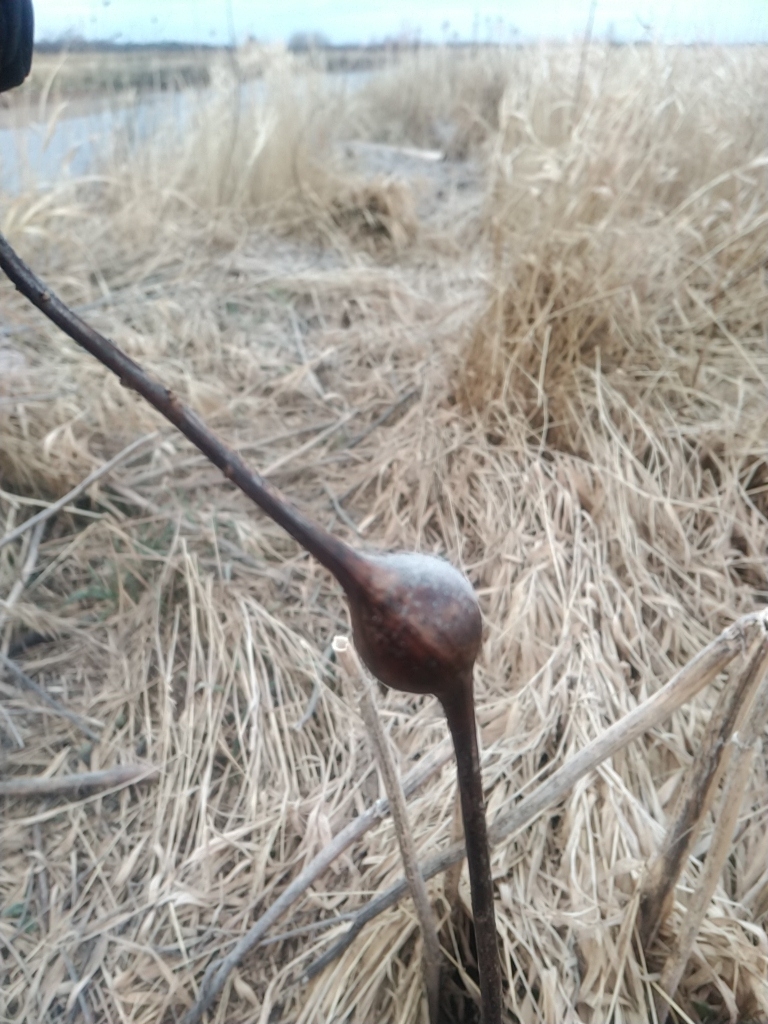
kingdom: Animalia
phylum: Arthropoda
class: Insecta
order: Diptera
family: Tephritidae
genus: Eurosta
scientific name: Eurosta solidaginis
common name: Goldenrod gall fly
